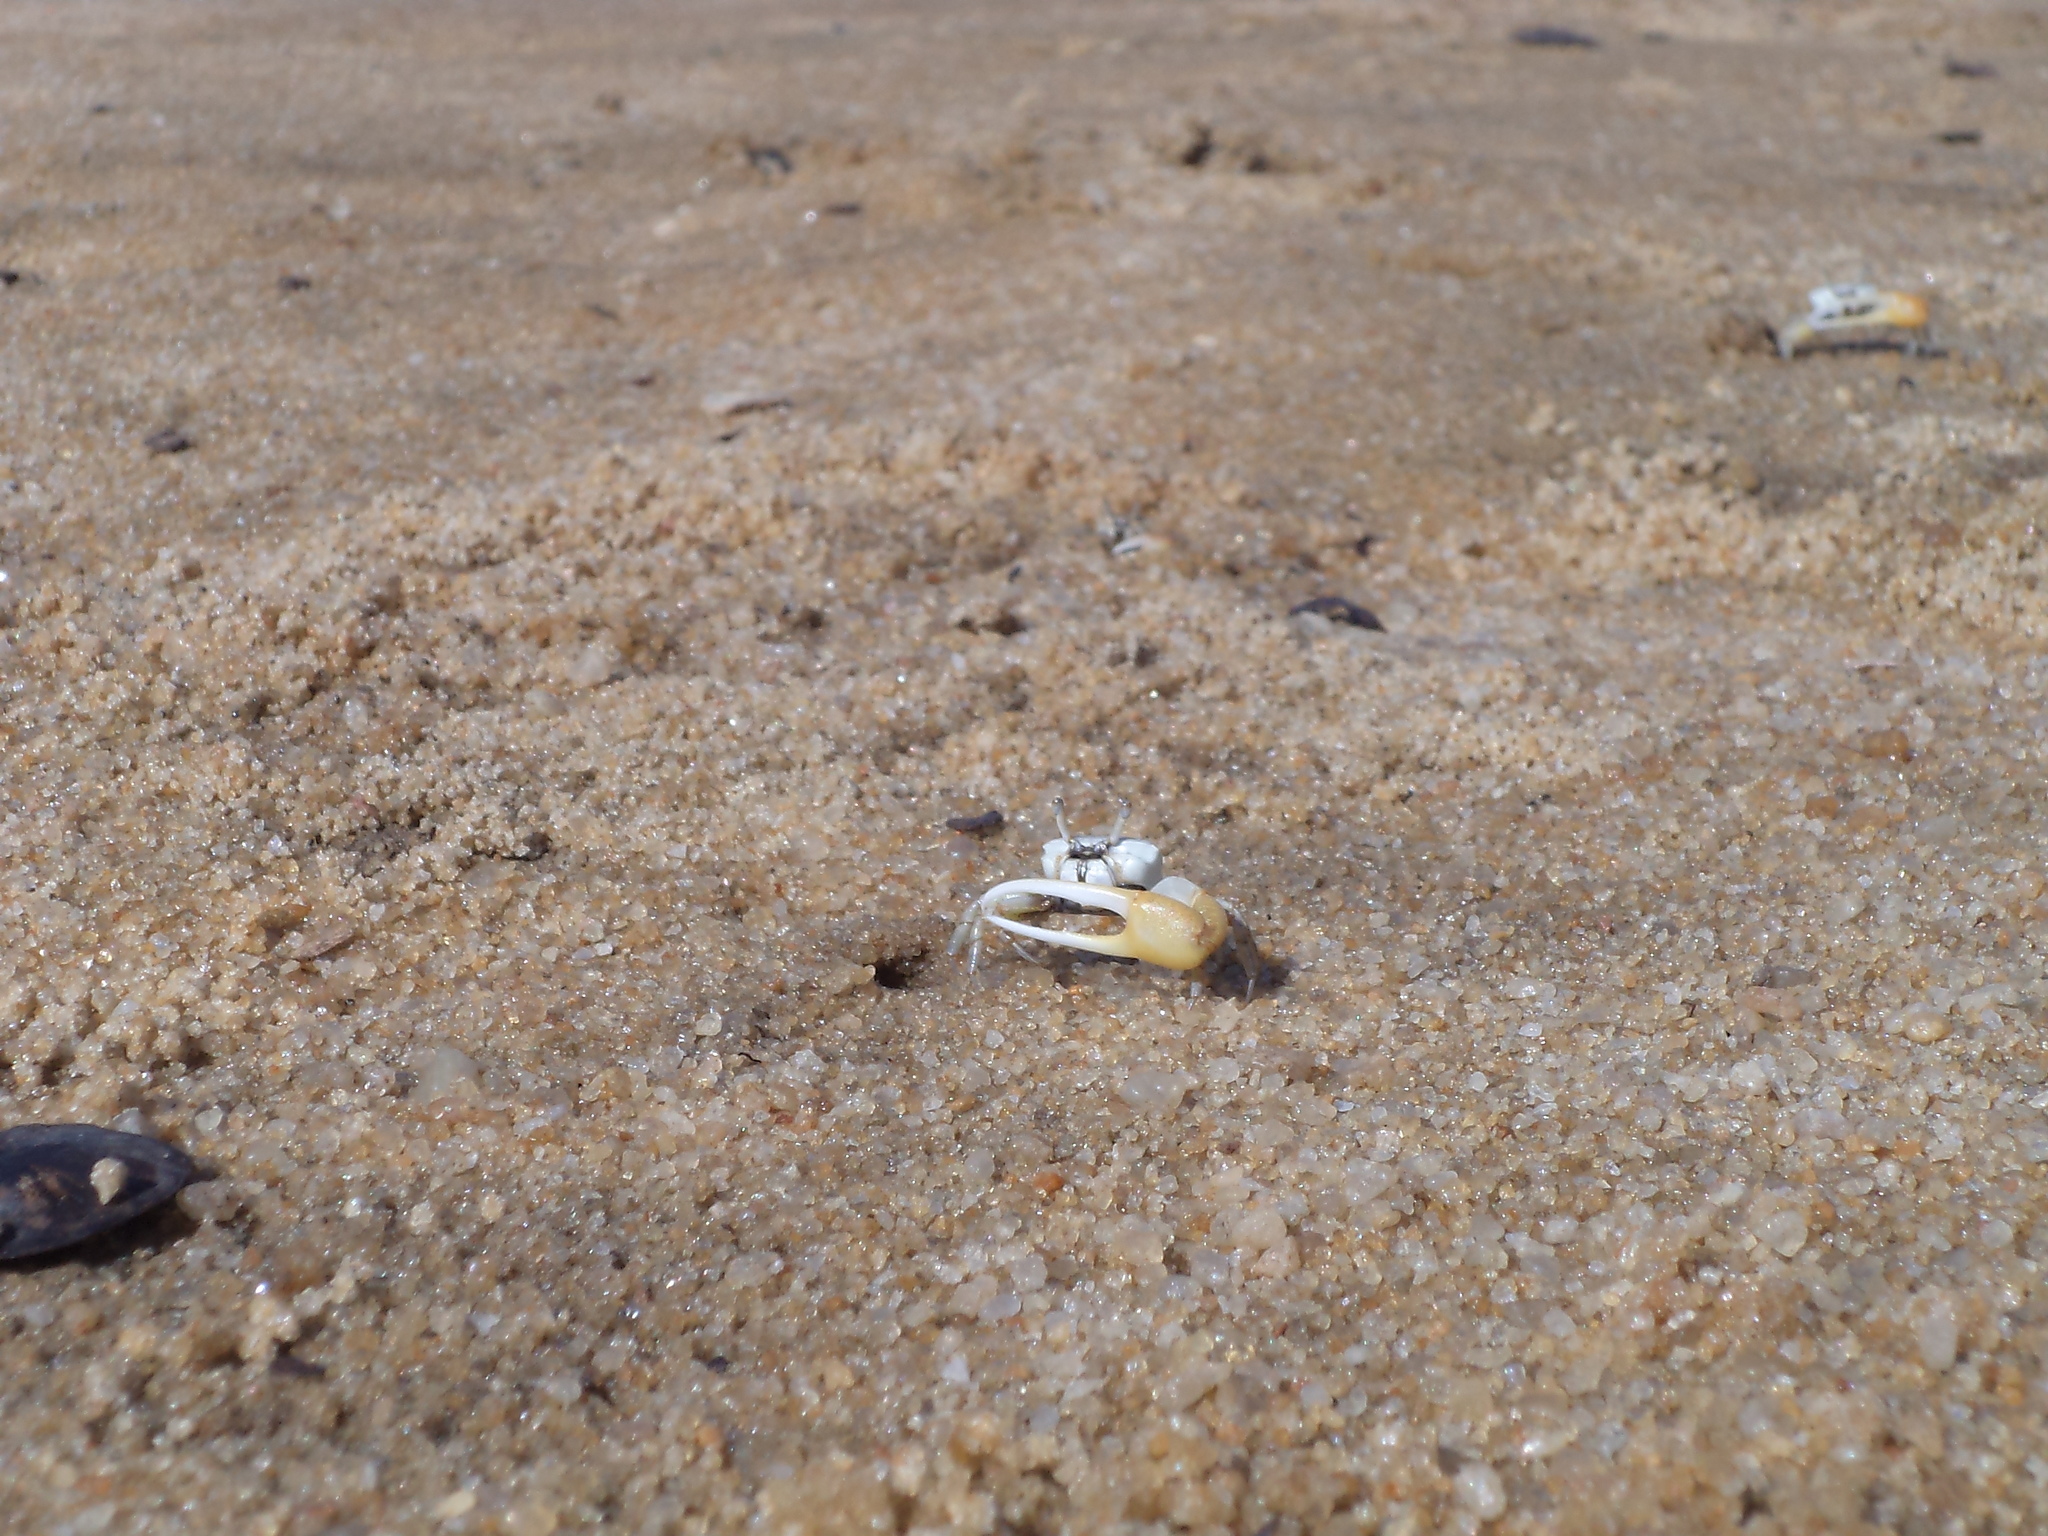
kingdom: Animalia
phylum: Arthropoda
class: Malacostraca
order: Decapoda
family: Ocypodidae
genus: Leptuca
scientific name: Leptuca leptodactyla
